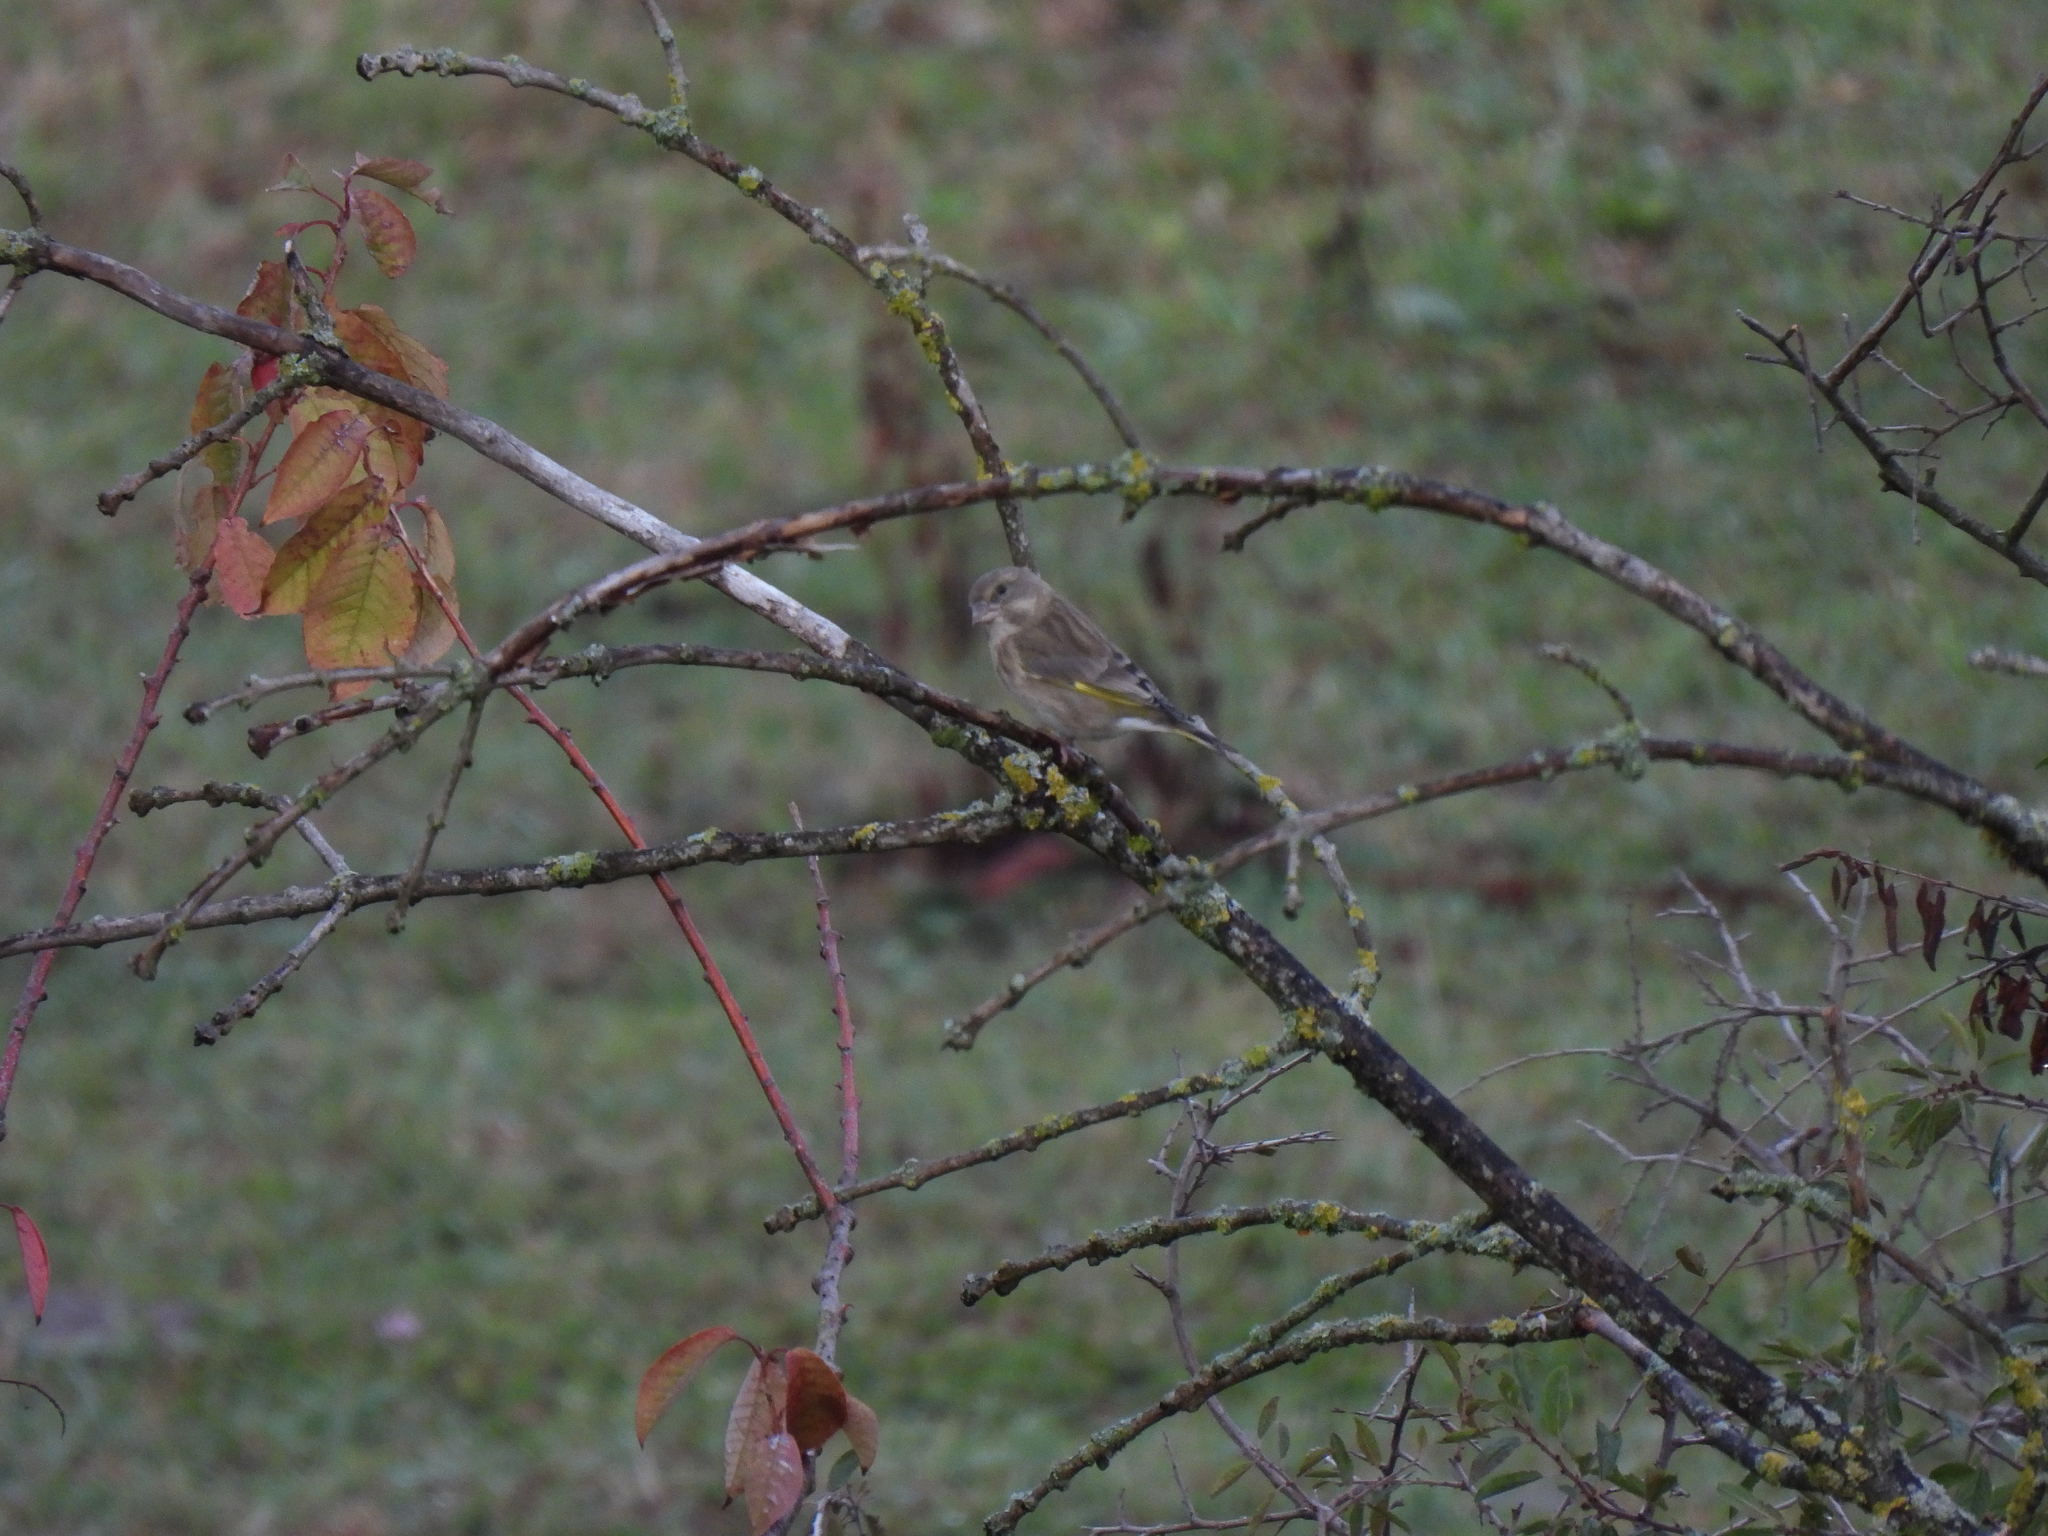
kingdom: Plantae
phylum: Tracheophyta
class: Liliopsida
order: Poales
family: Poaceae
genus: Chloris
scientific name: Chloris chloris
